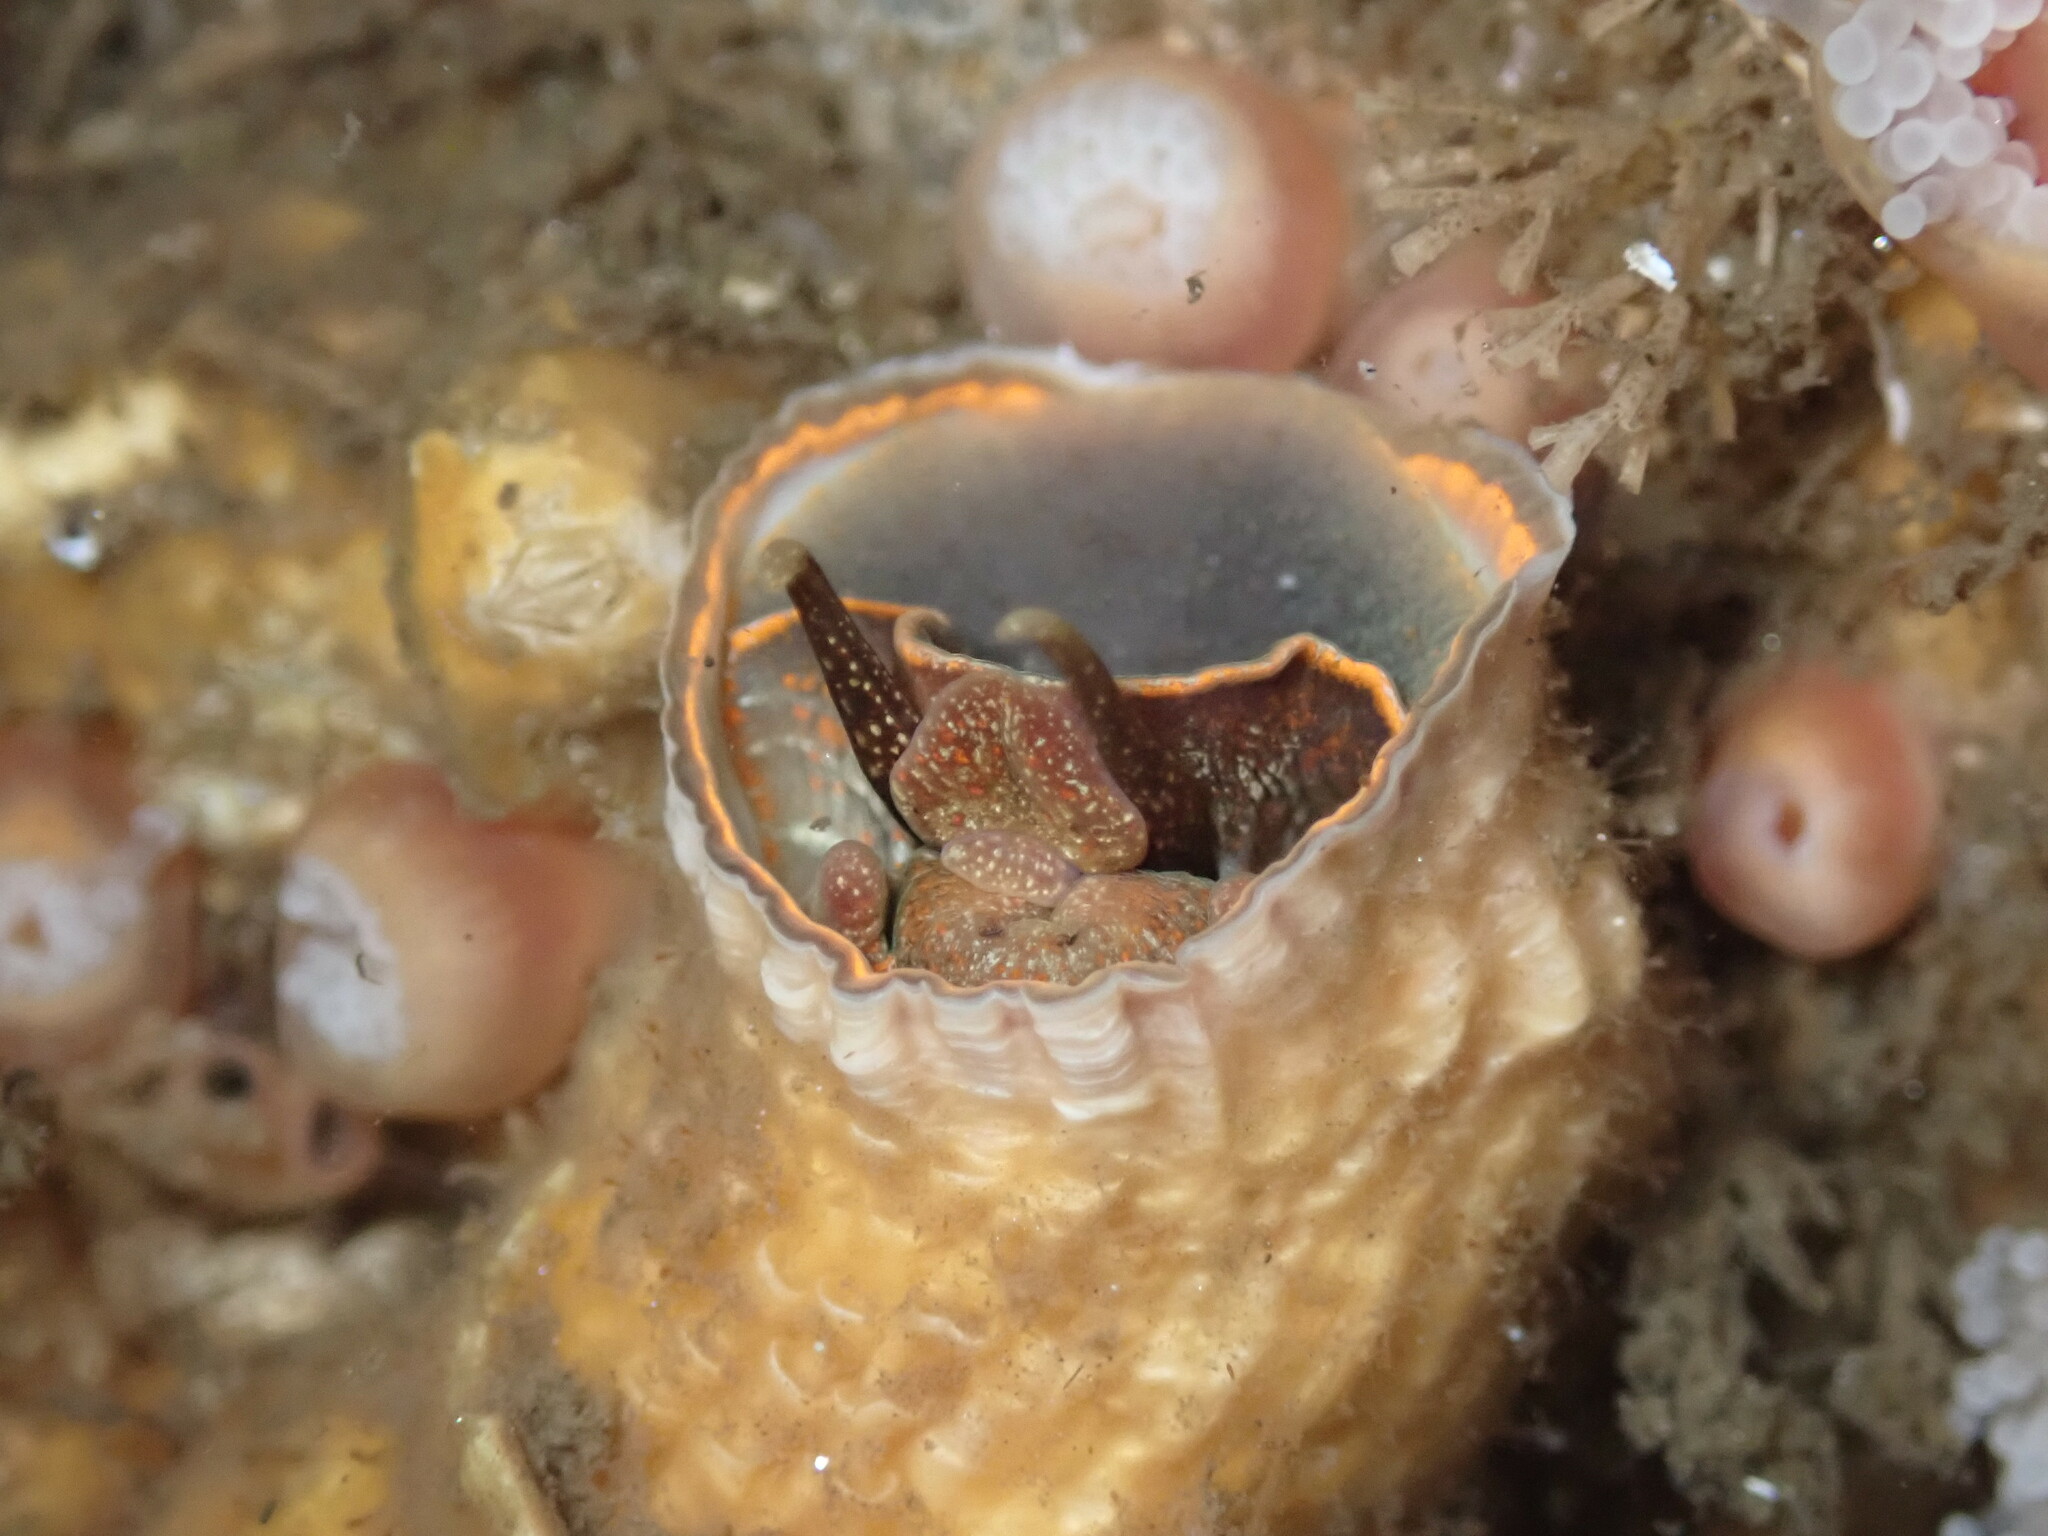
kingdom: Animalia
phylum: Mollusca
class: Gastropoda
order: Littorinimorpha
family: Vermetidae
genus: Thylacodes
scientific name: Thylacodes squamigerus
